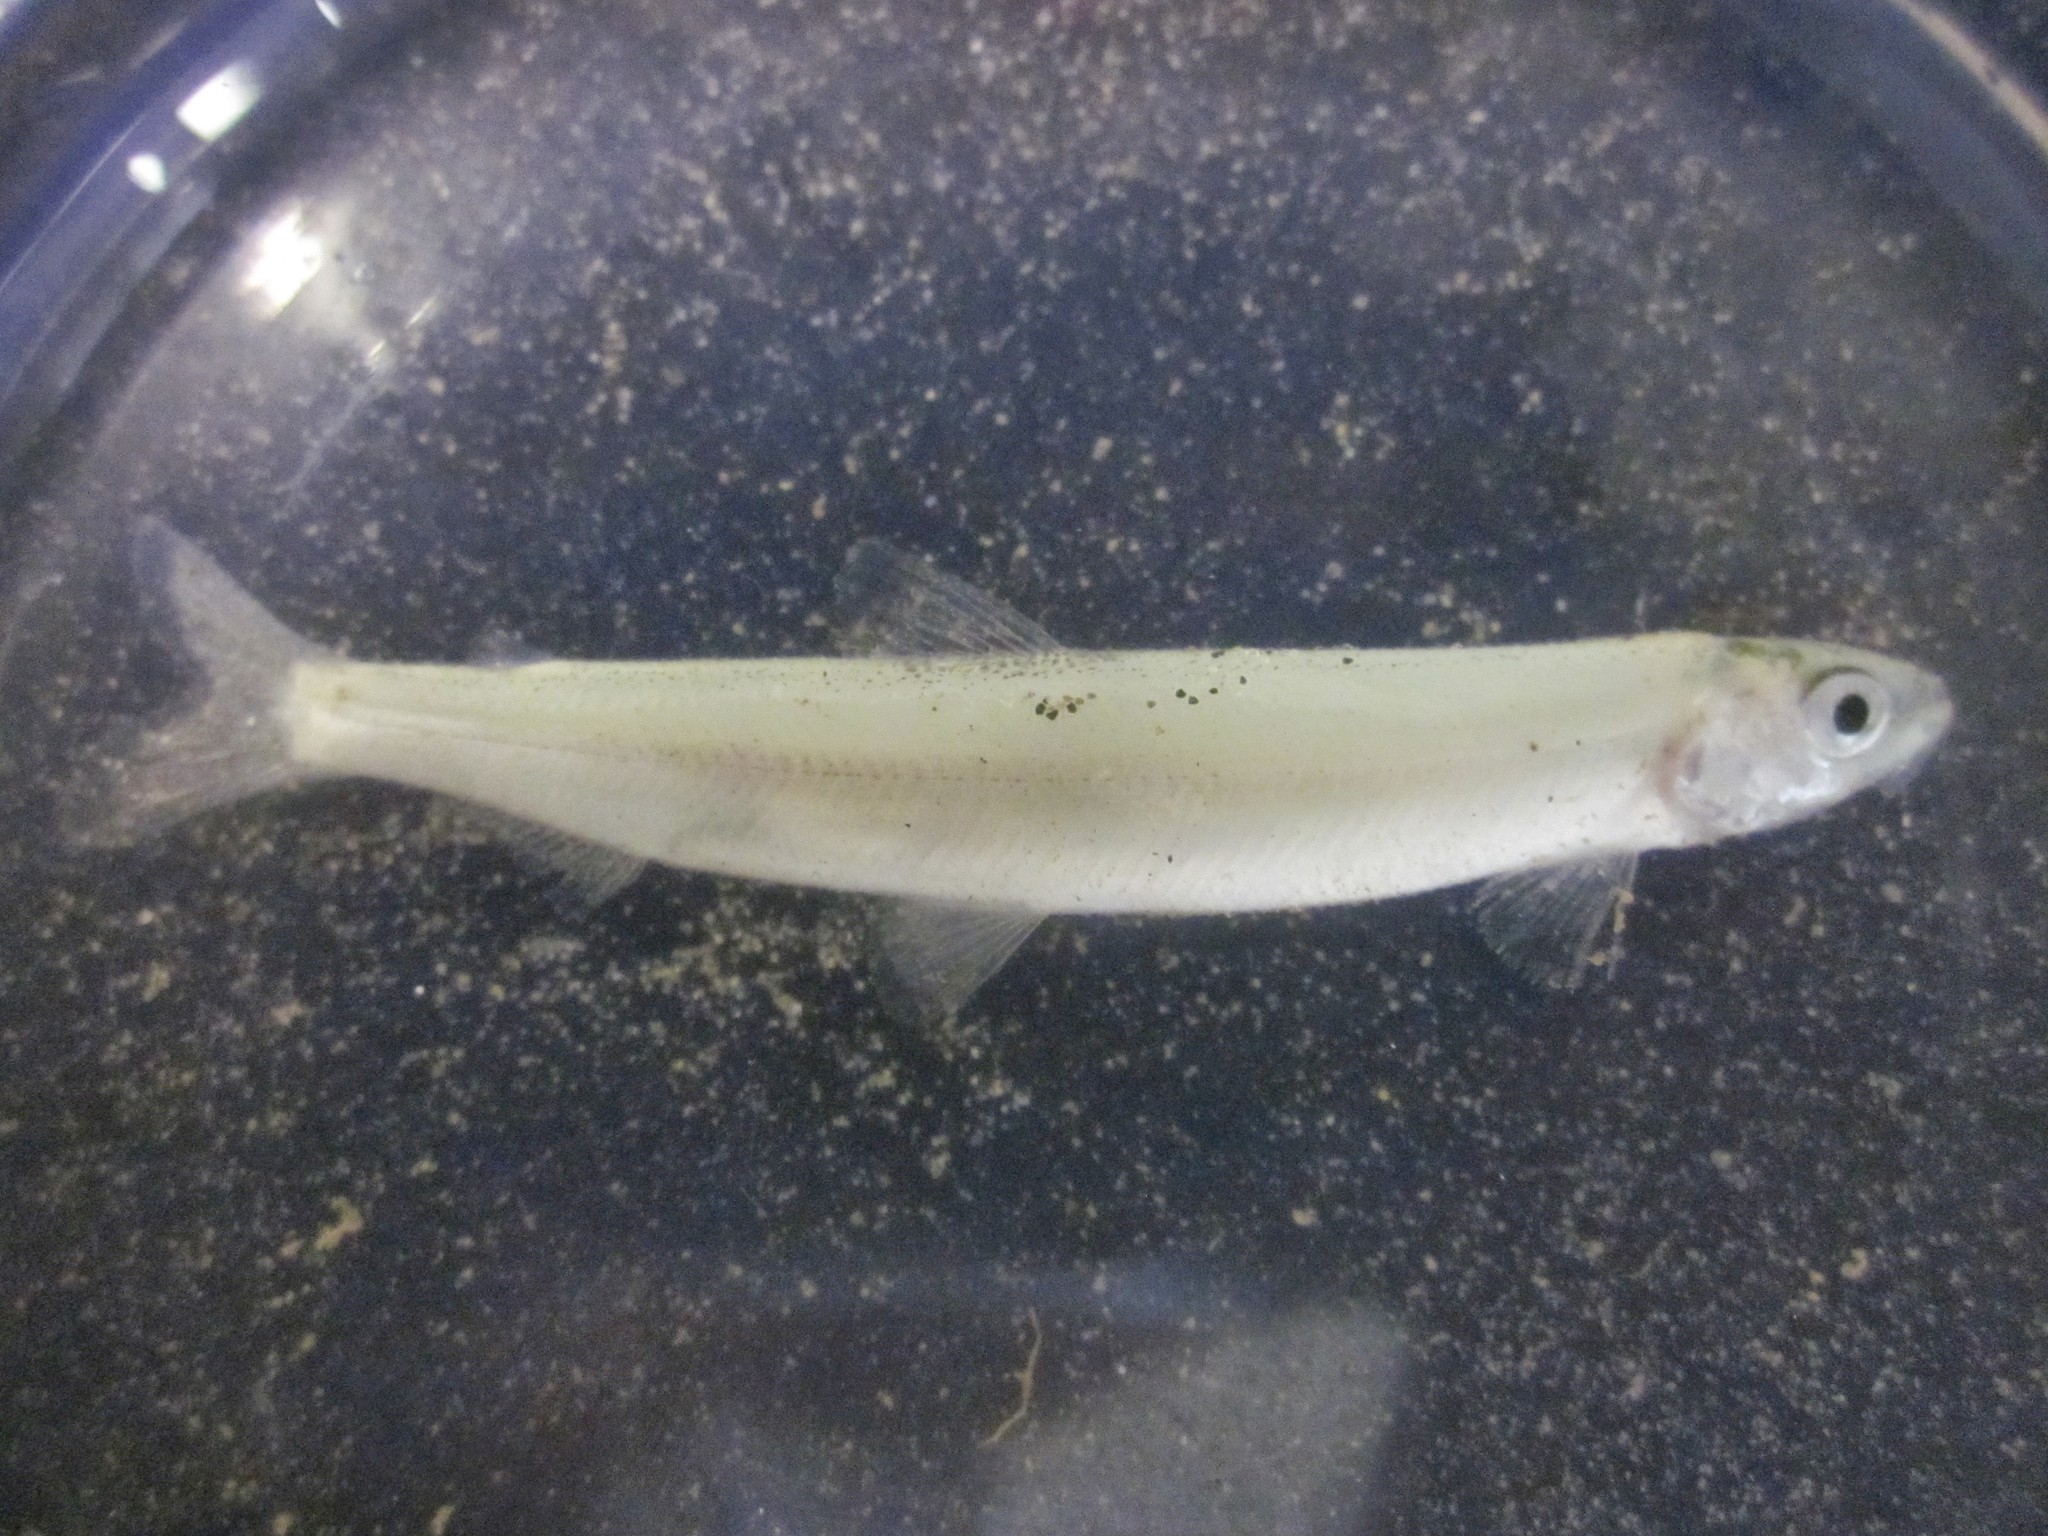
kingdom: Animalia
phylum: Chordata
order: Osmeriformes
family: Osmeridae
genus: Hypomesus
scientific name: Hypomesus pretiosus
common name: Surf smelt
